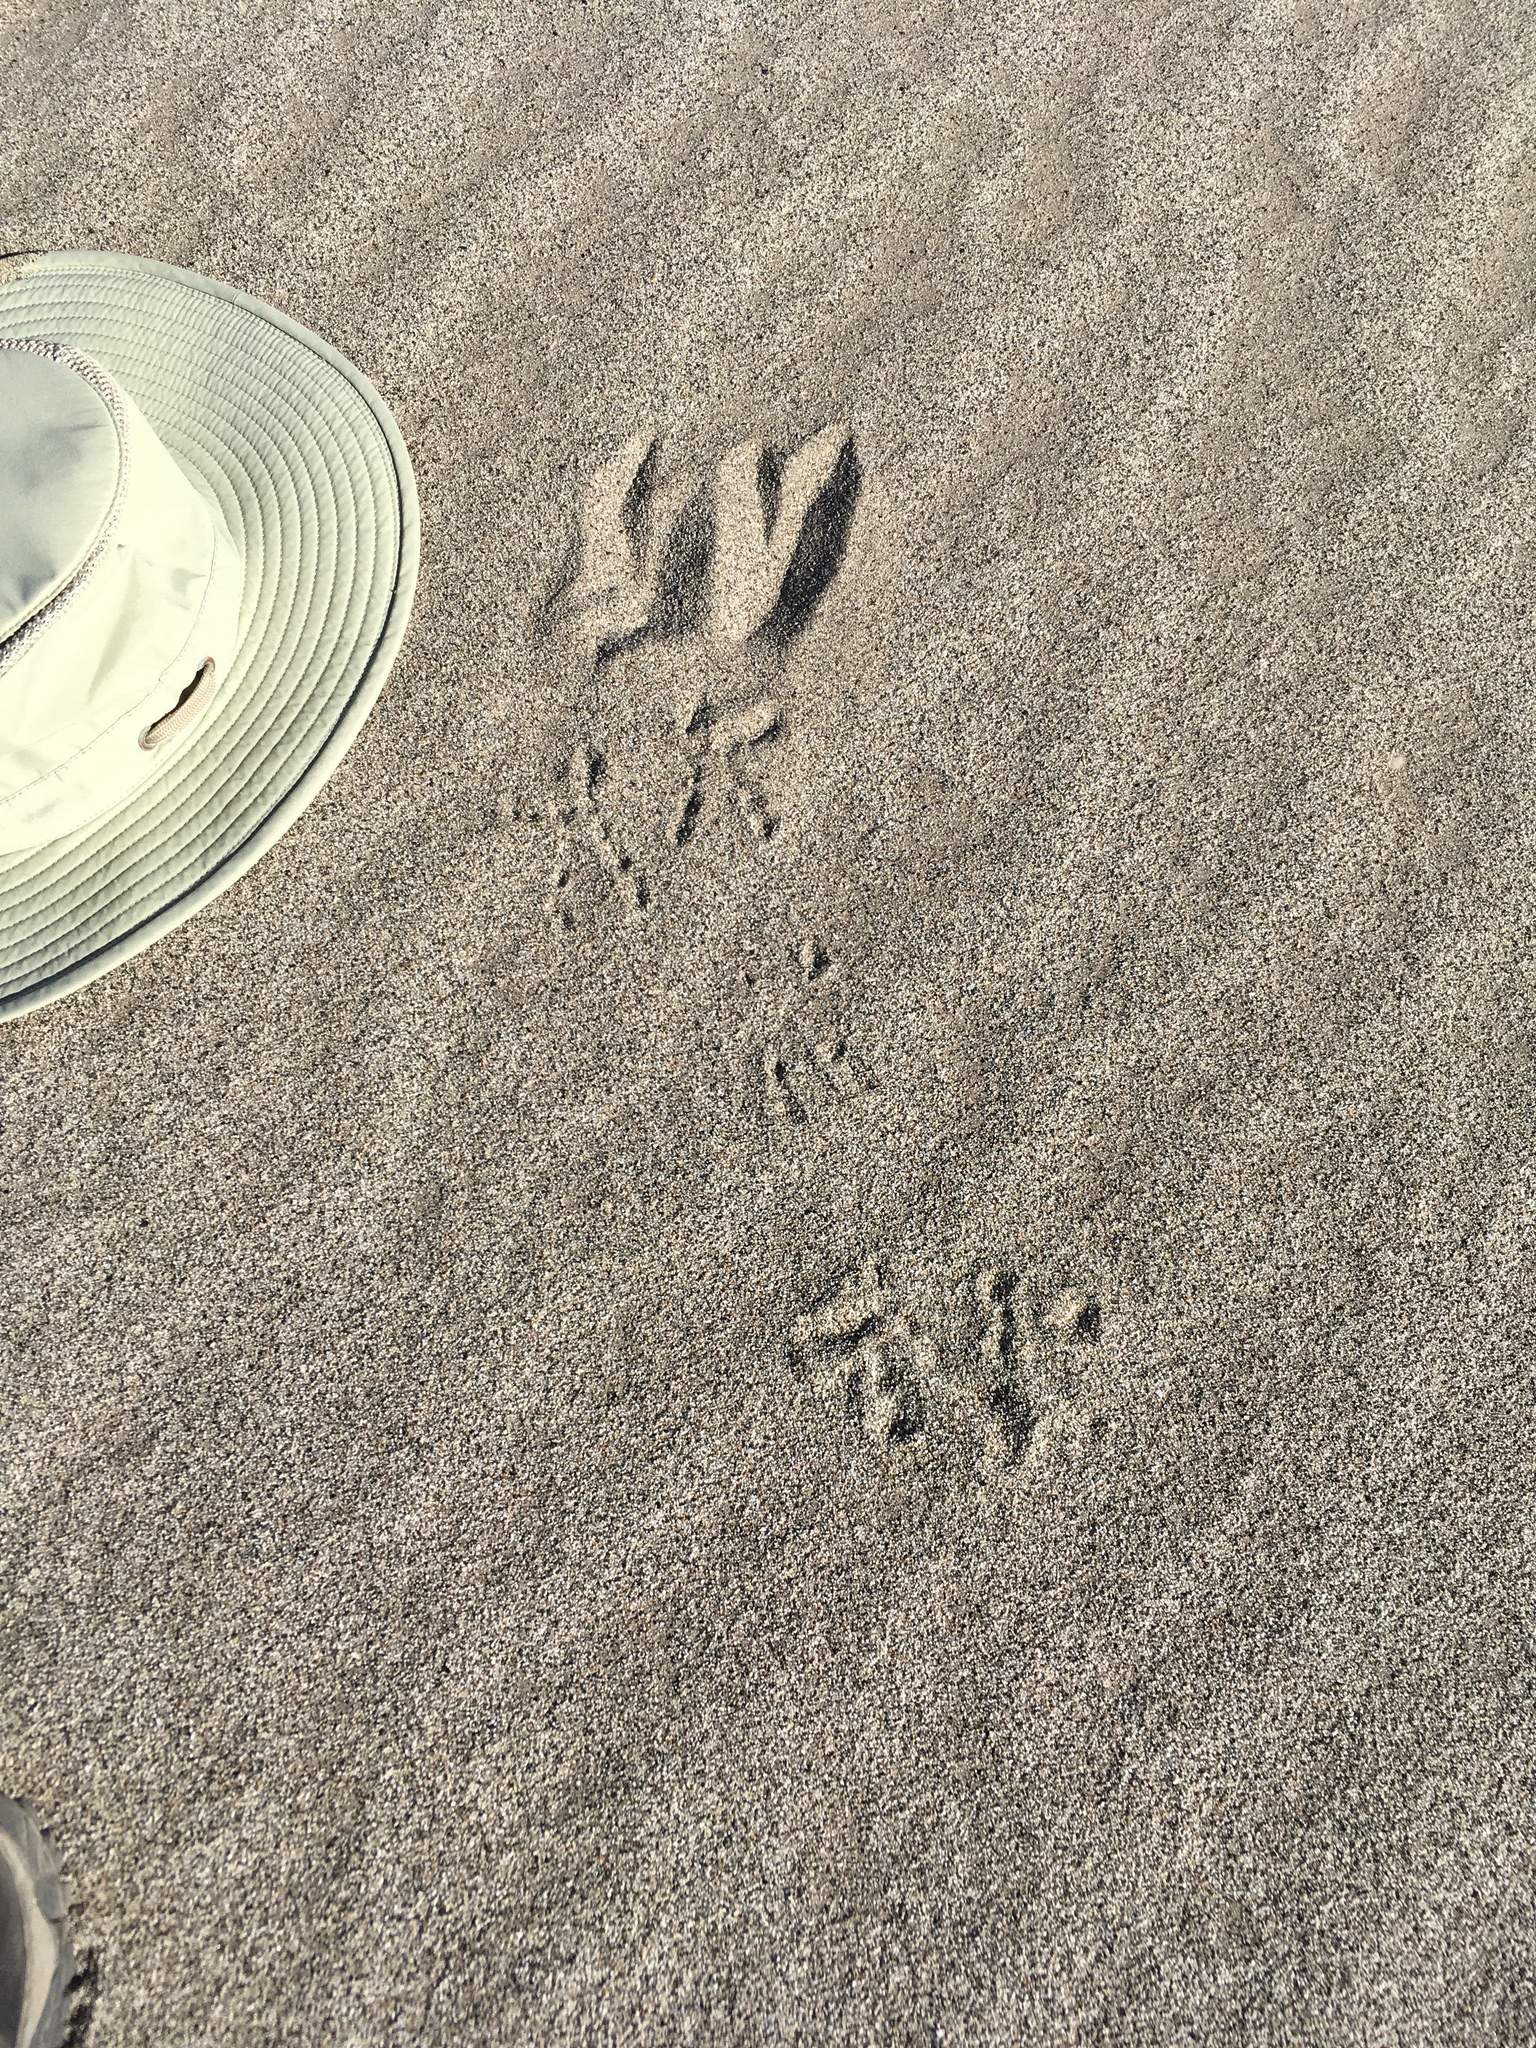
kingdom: Animalia
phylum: Chordata
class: Aves
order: Strigiformes
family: Strigidae
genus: Asio
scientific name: Asio otus
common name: Long-eared owl
